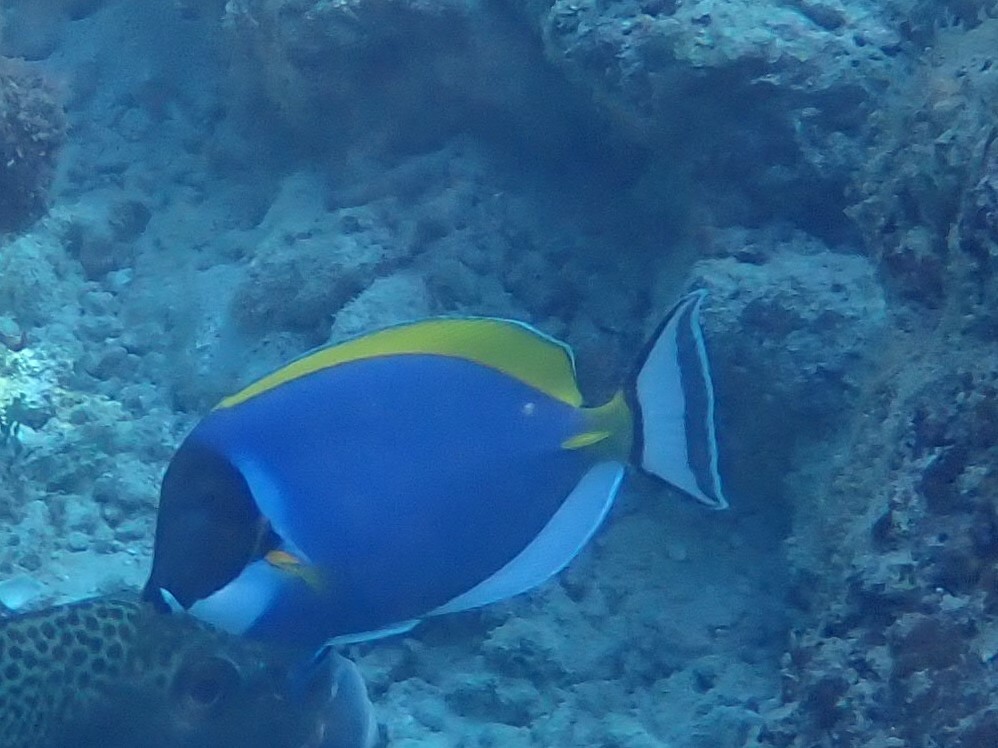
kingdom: Animalia
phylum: Chordata
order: Perciformes
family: Acanthuridae
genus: Acanthurus
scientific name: Acanthurus leucosternon
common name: Blue surgeonfish
